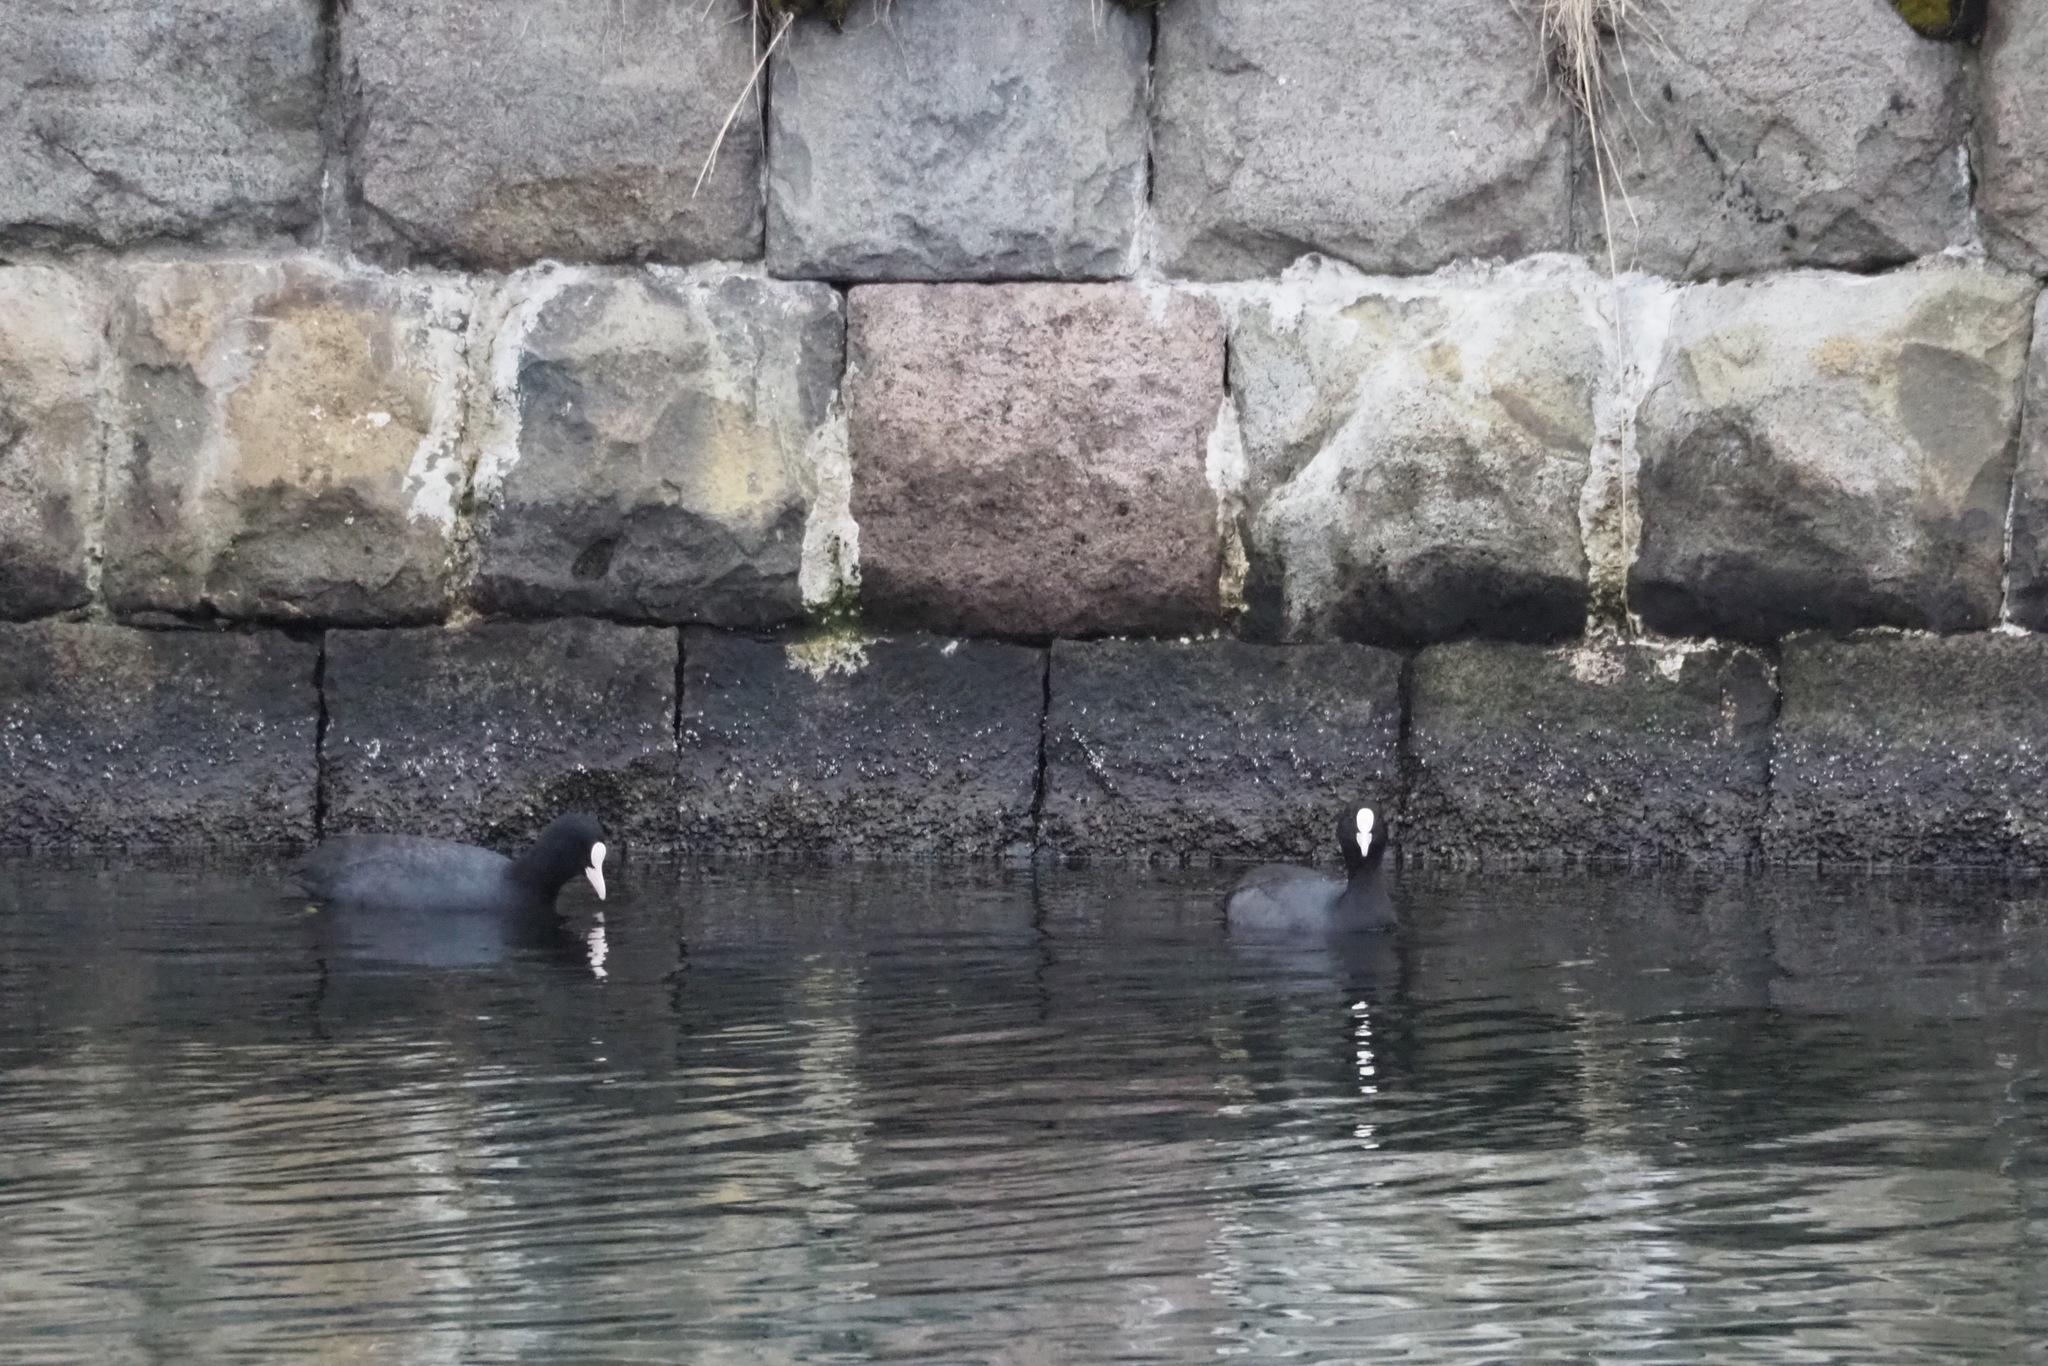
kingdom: Animalia
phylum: Chordata
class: Aves
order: Gruiformes
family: Rallidae
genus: Fulica
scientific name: Fulica atra
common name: Eurasian coot
